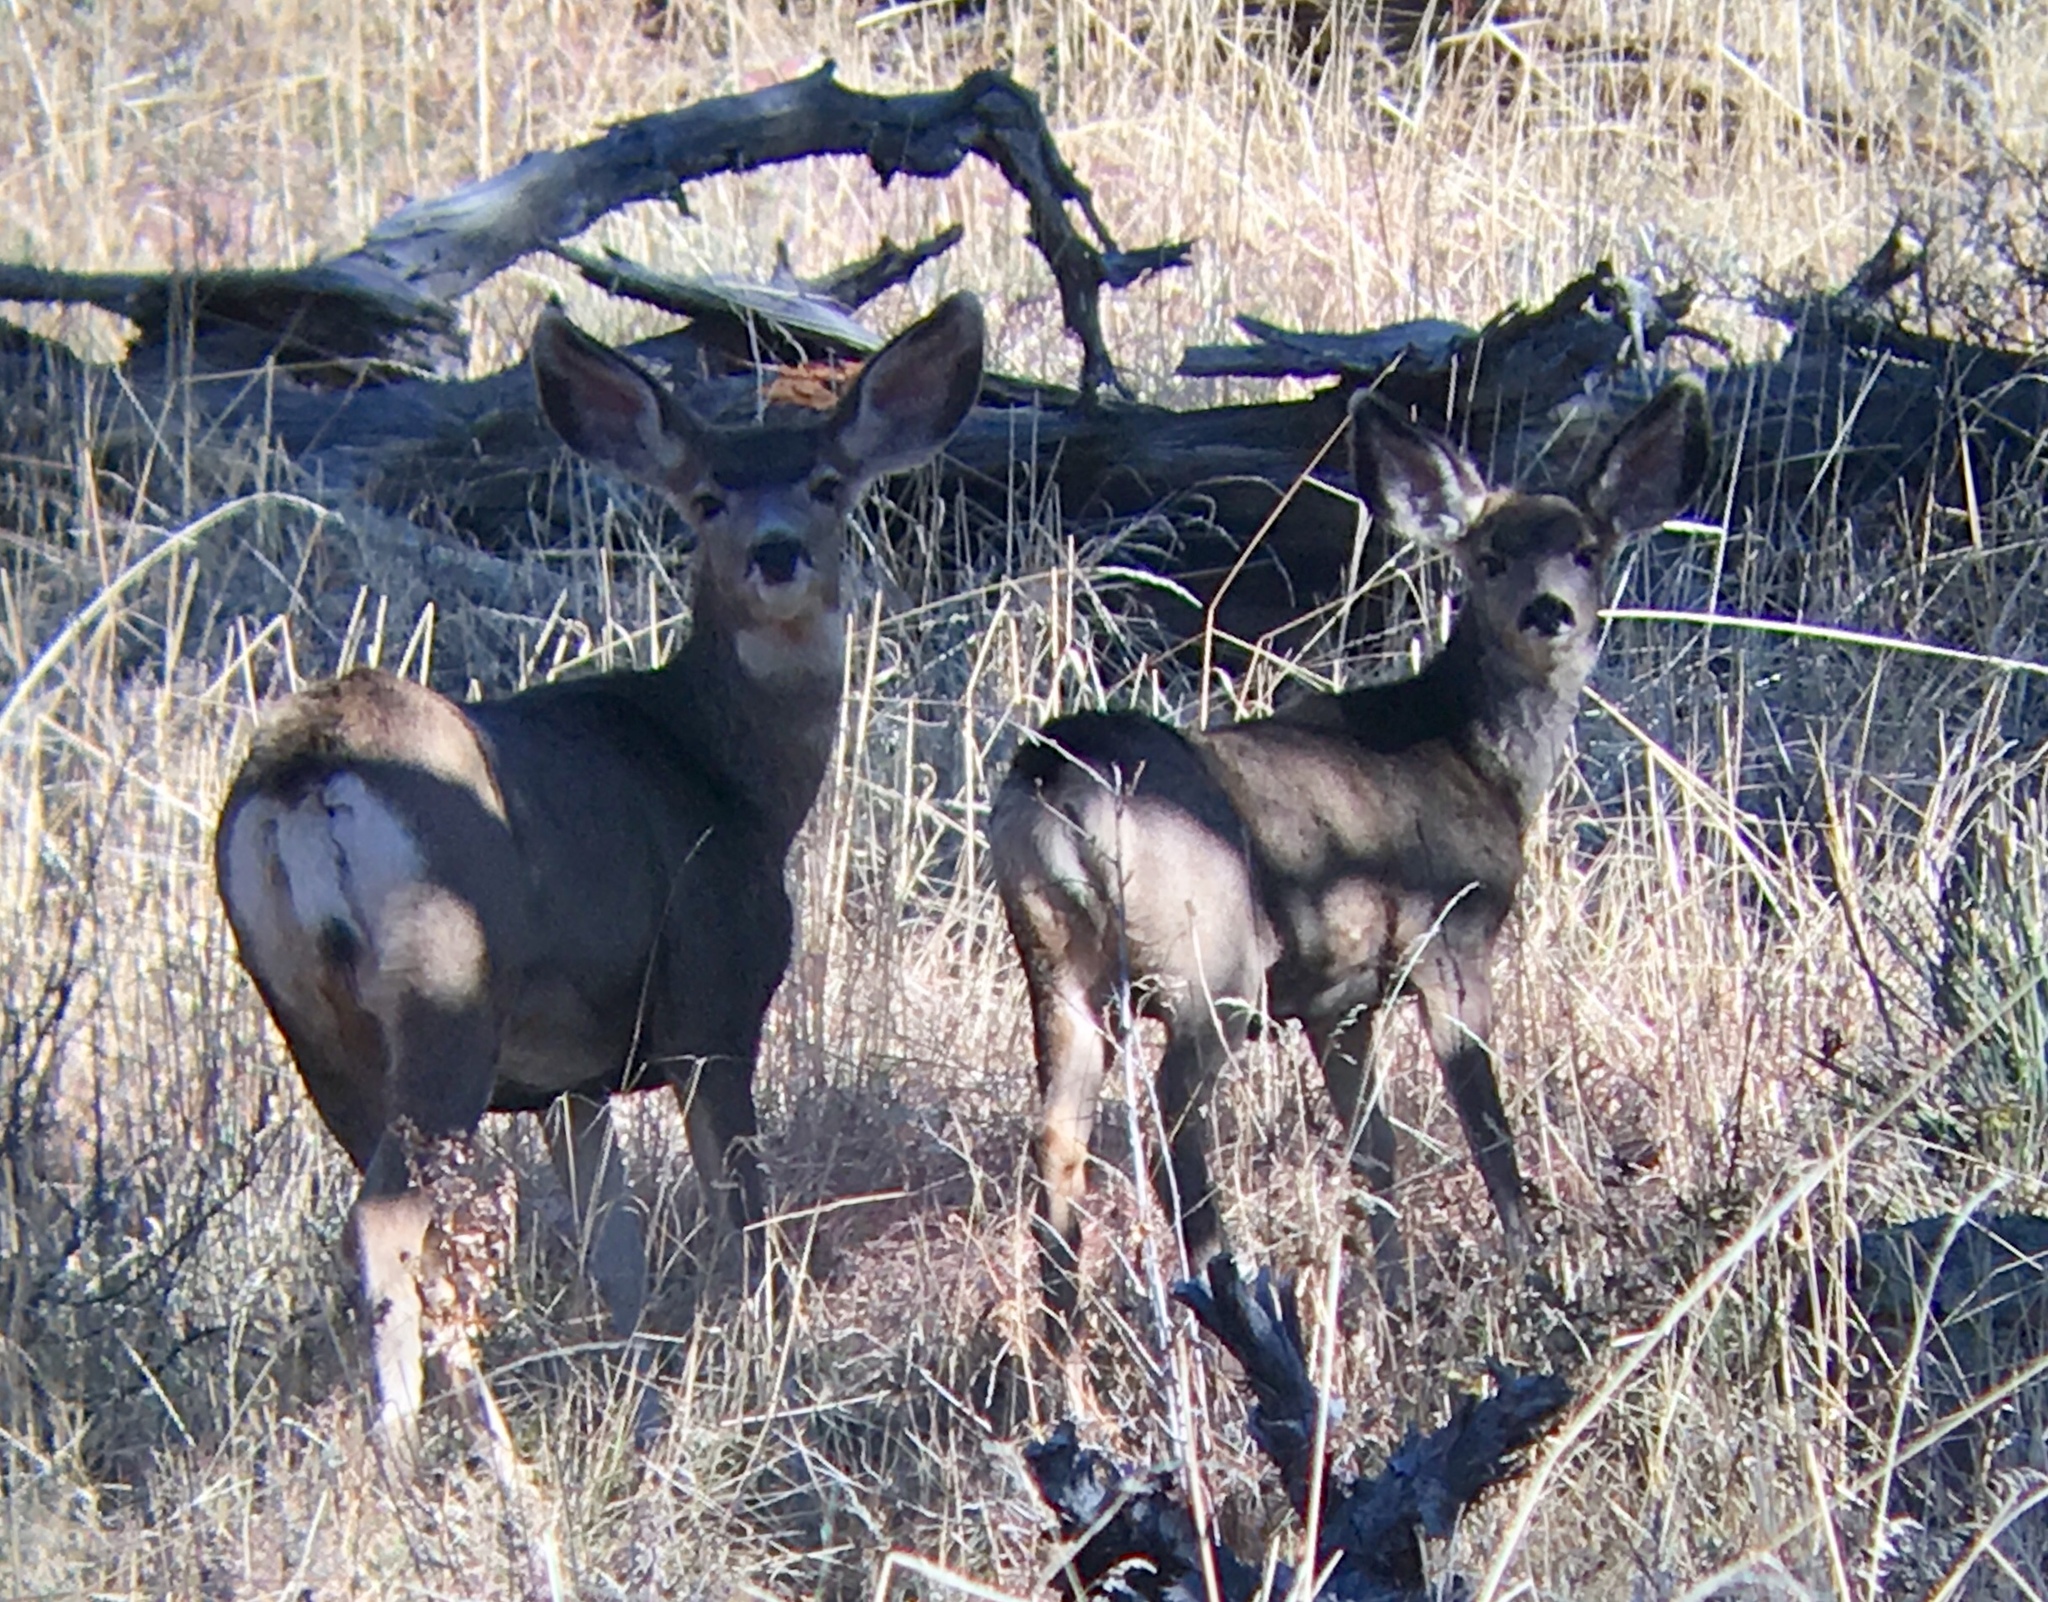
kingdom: Animalia
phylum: Chordata
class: Mammalia
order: Artiodactyla
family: Cervidae
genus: Odocoileus
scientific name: Odocoileus hemionus
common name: Mule deer
